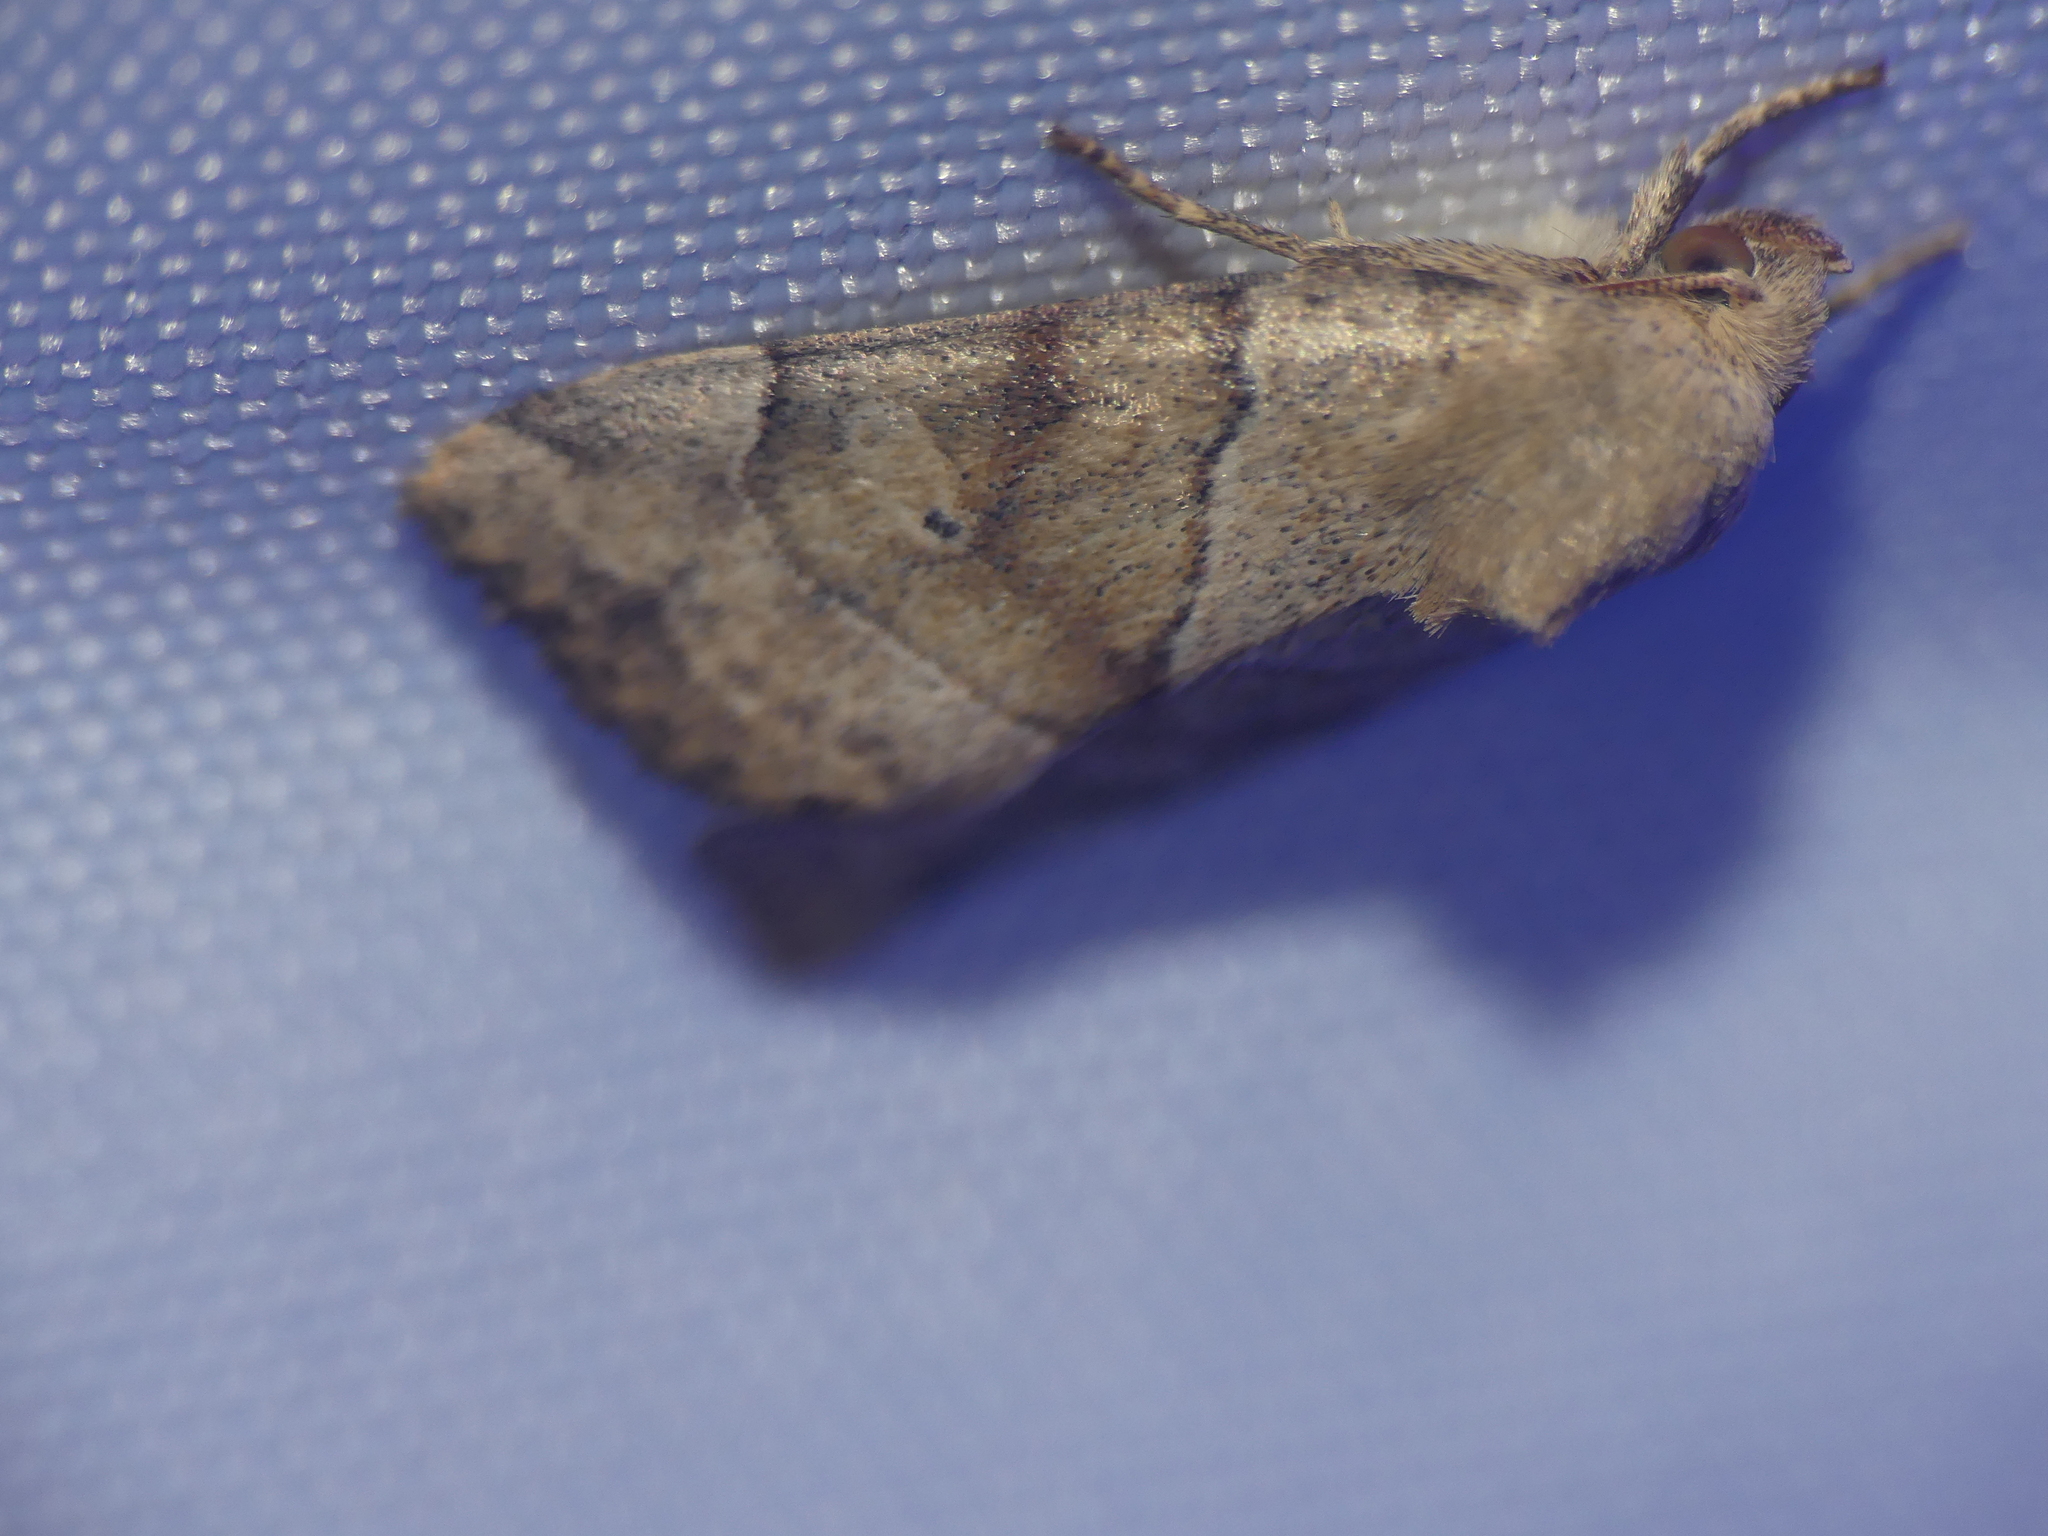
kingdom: Animalia
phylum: Arthropoda
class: Insecta
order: Lepidoptera
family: Noctuidae
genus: Cosmia
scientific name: Cosmia trapezina
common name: Dun-bar
